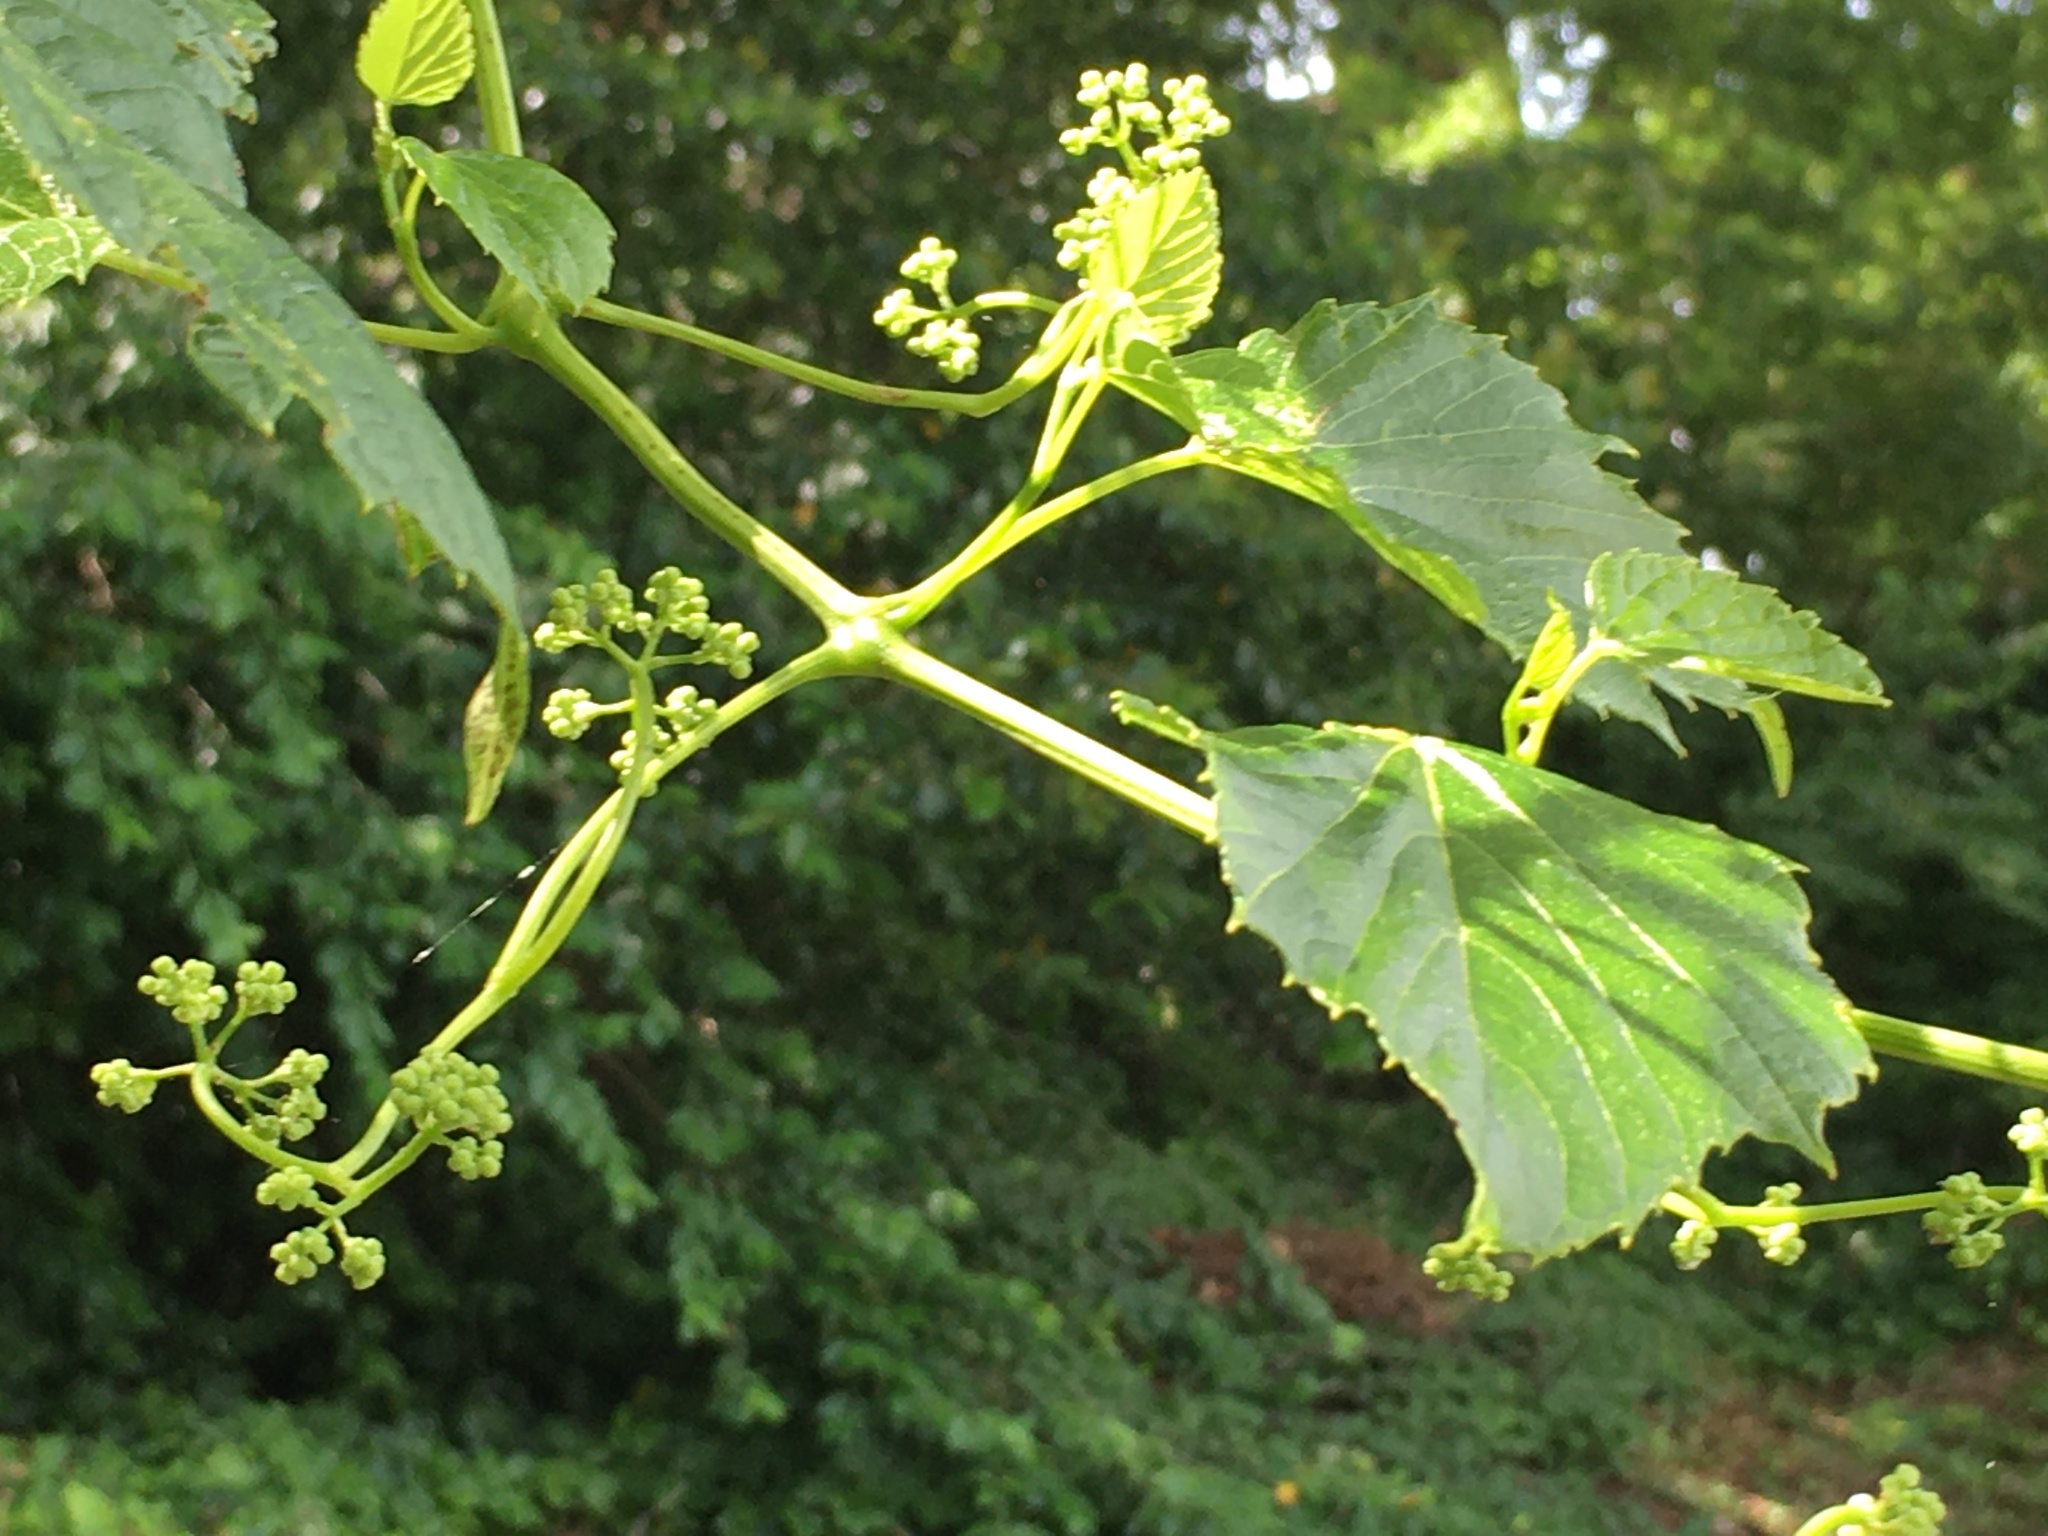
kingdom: Plantae
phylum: Tracheophyta
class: Magnoliopsida
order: Vitales
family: Vitaceae
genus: Ampelopsis
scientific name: Ampelopsis cordata
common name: Heart-leaf ampelopsis
